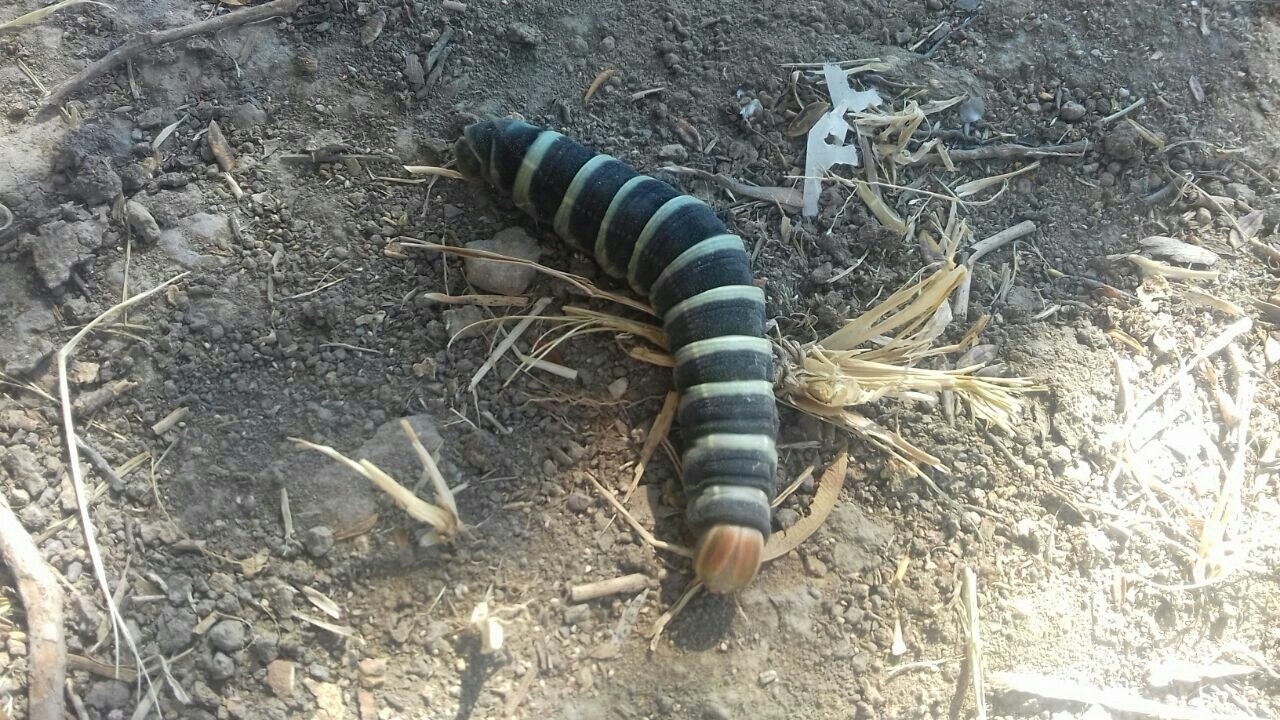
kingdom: Animalia
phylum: Arthropoda
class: Insecta
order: Lepidoptera
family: Sphingidae
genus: Pachylia
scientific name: Pachylia syces
